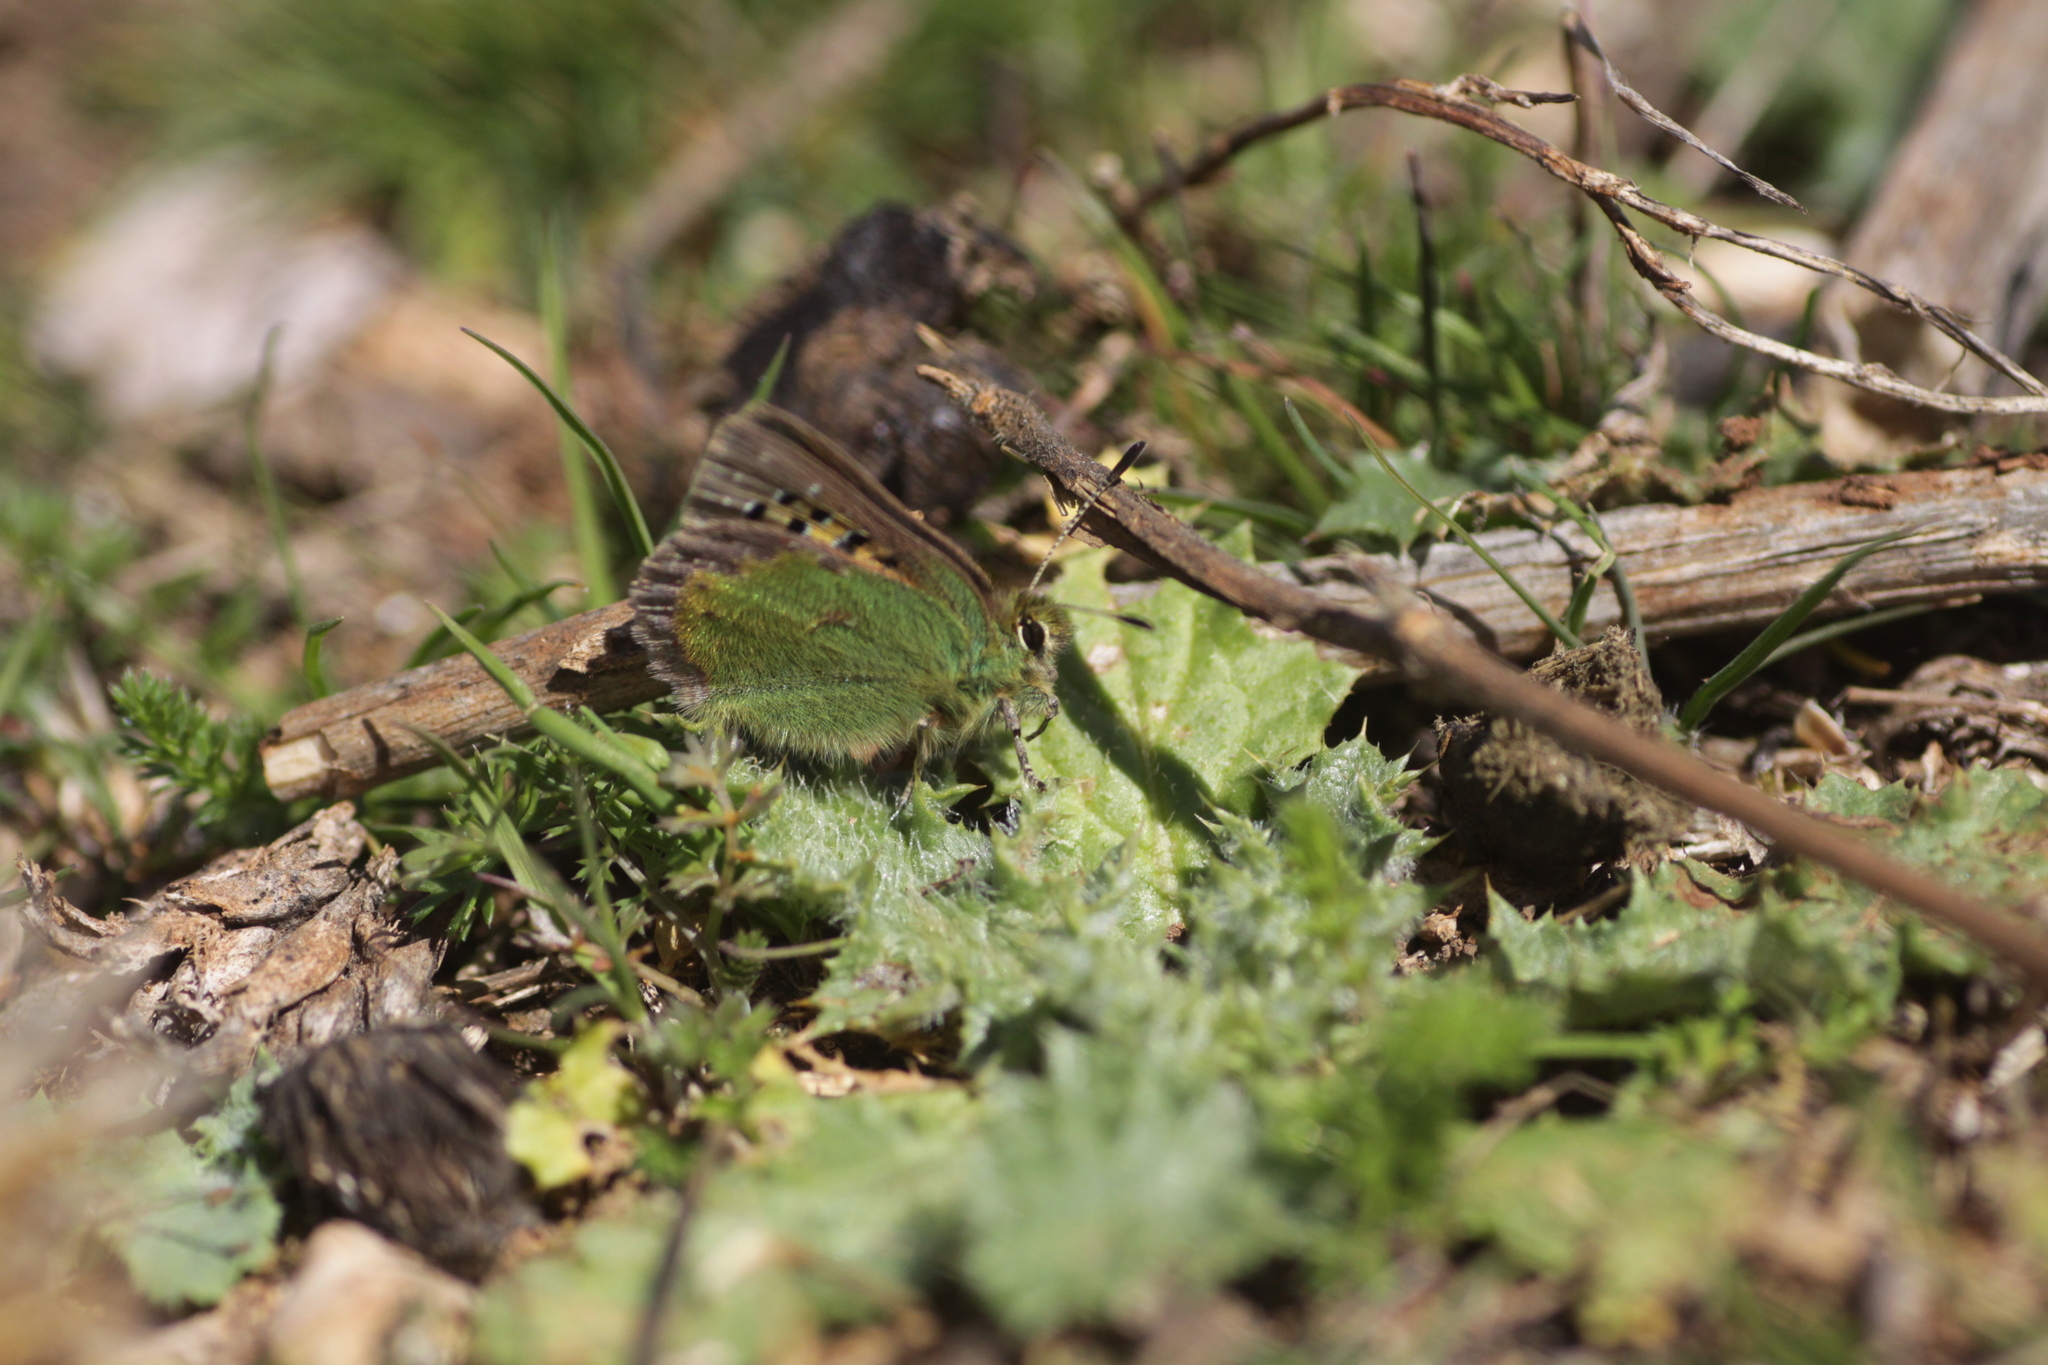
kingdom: Animalia
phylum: Arthropoda
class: Insecta
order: Lepidoptera
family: Lycaenidae
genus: Tomares
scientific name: Tomares ballus
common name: Provence hairstreak
